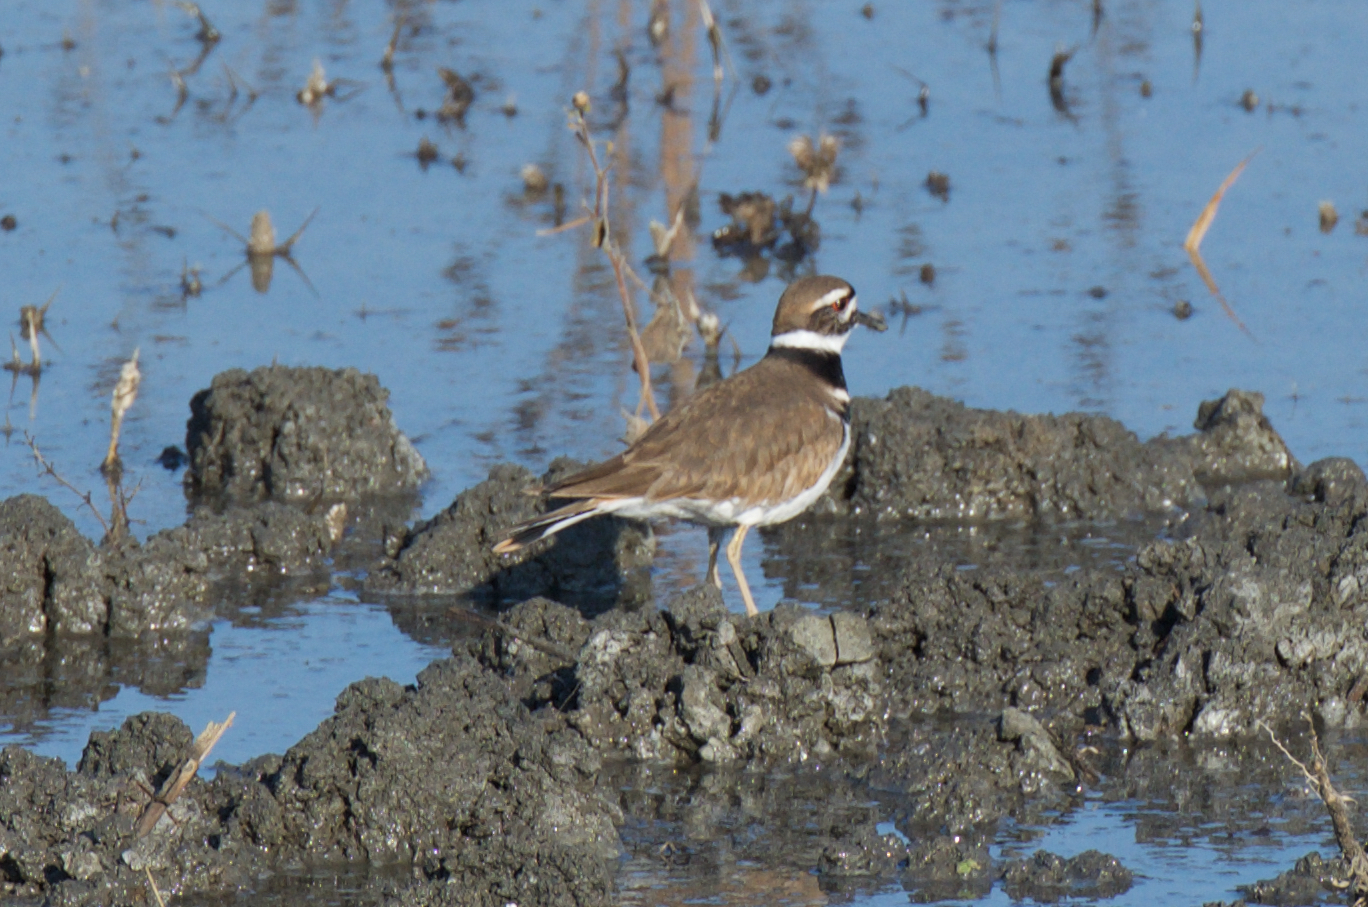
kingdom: Animalia
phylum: Chordata
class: Aves
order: Charadriiformes
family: Charadriidae
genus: Charadrius
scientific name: Charadrius vociferus
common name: Killdeer
